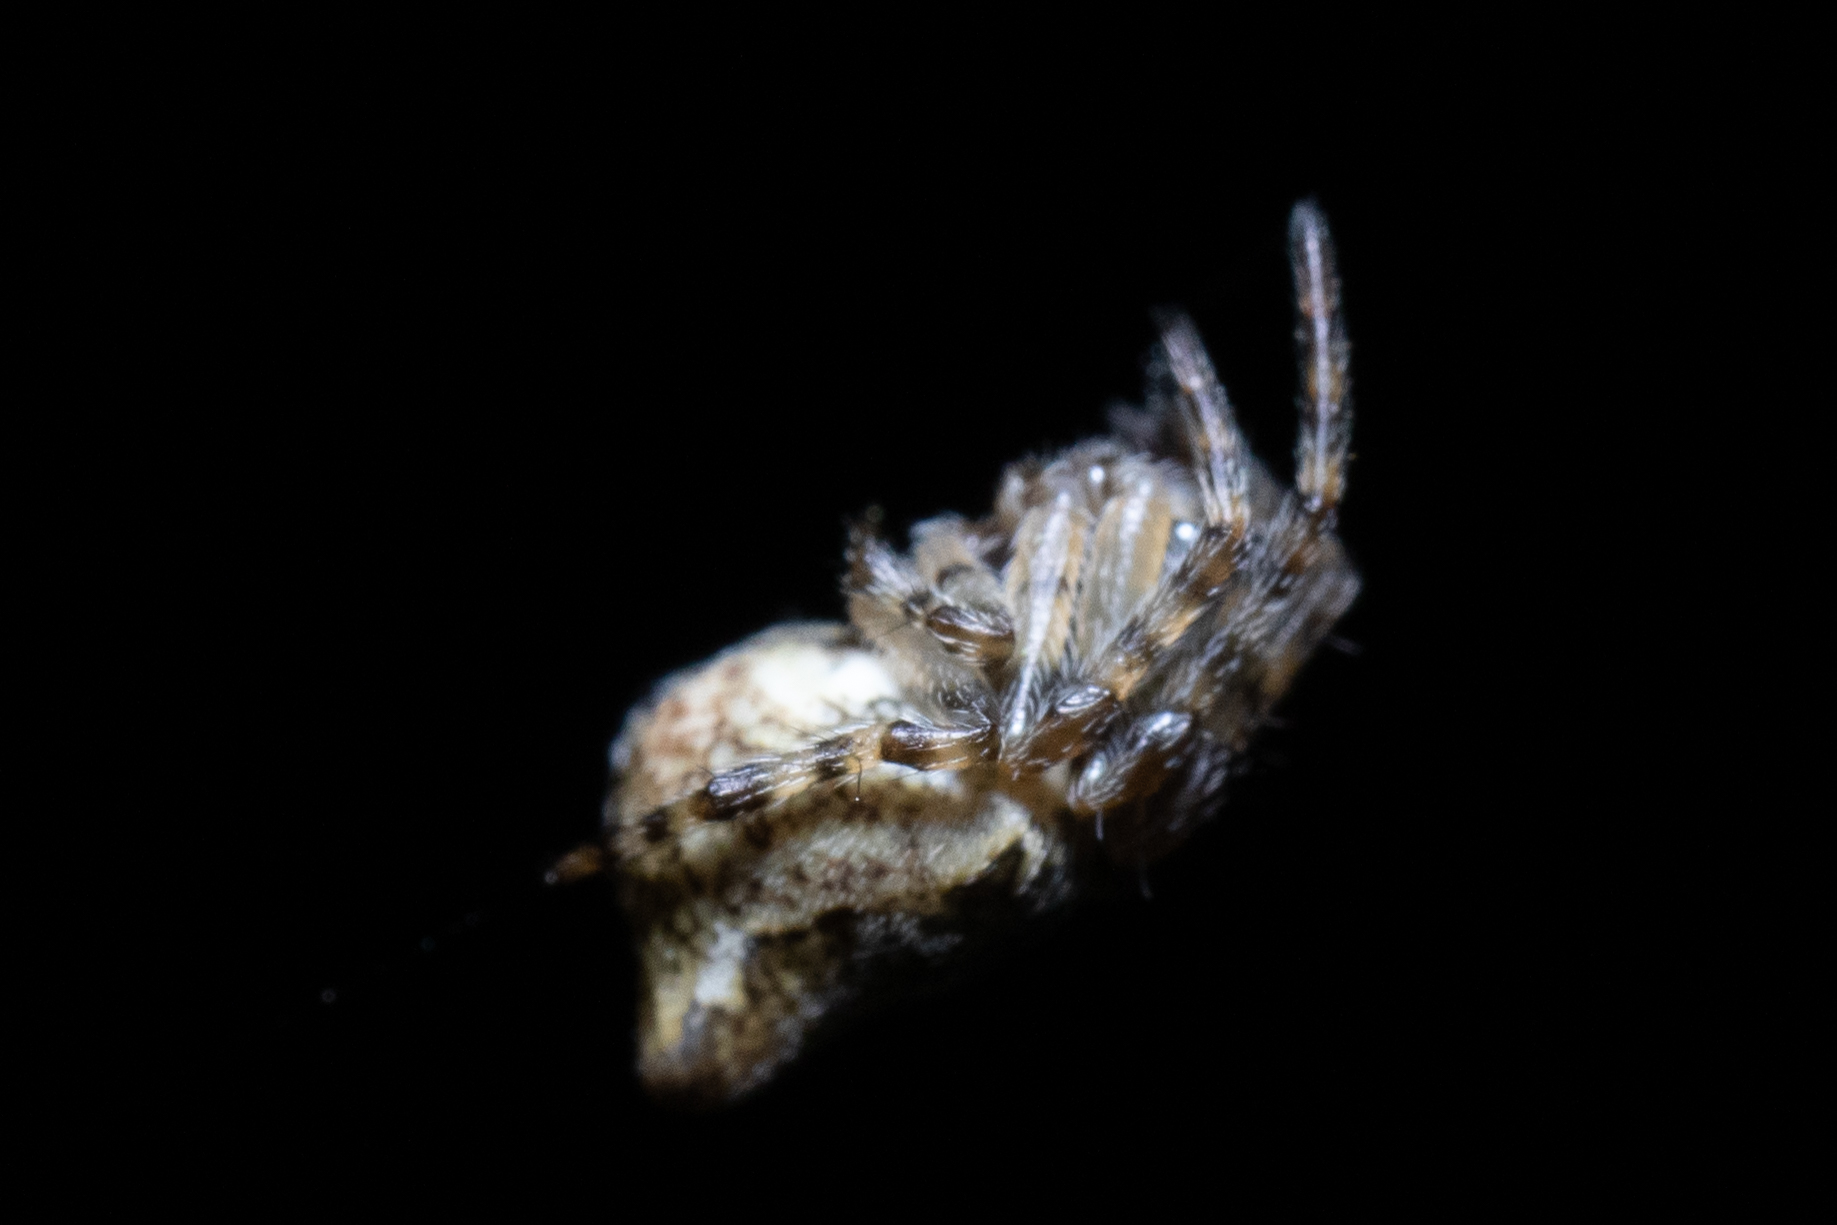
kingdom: Animalia
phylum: Arthropoda
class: Arachnida
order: Araneae
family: Araneidae
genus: Cyclosa
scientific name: Cyclosa conica
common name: Conical trashline orbweaver
